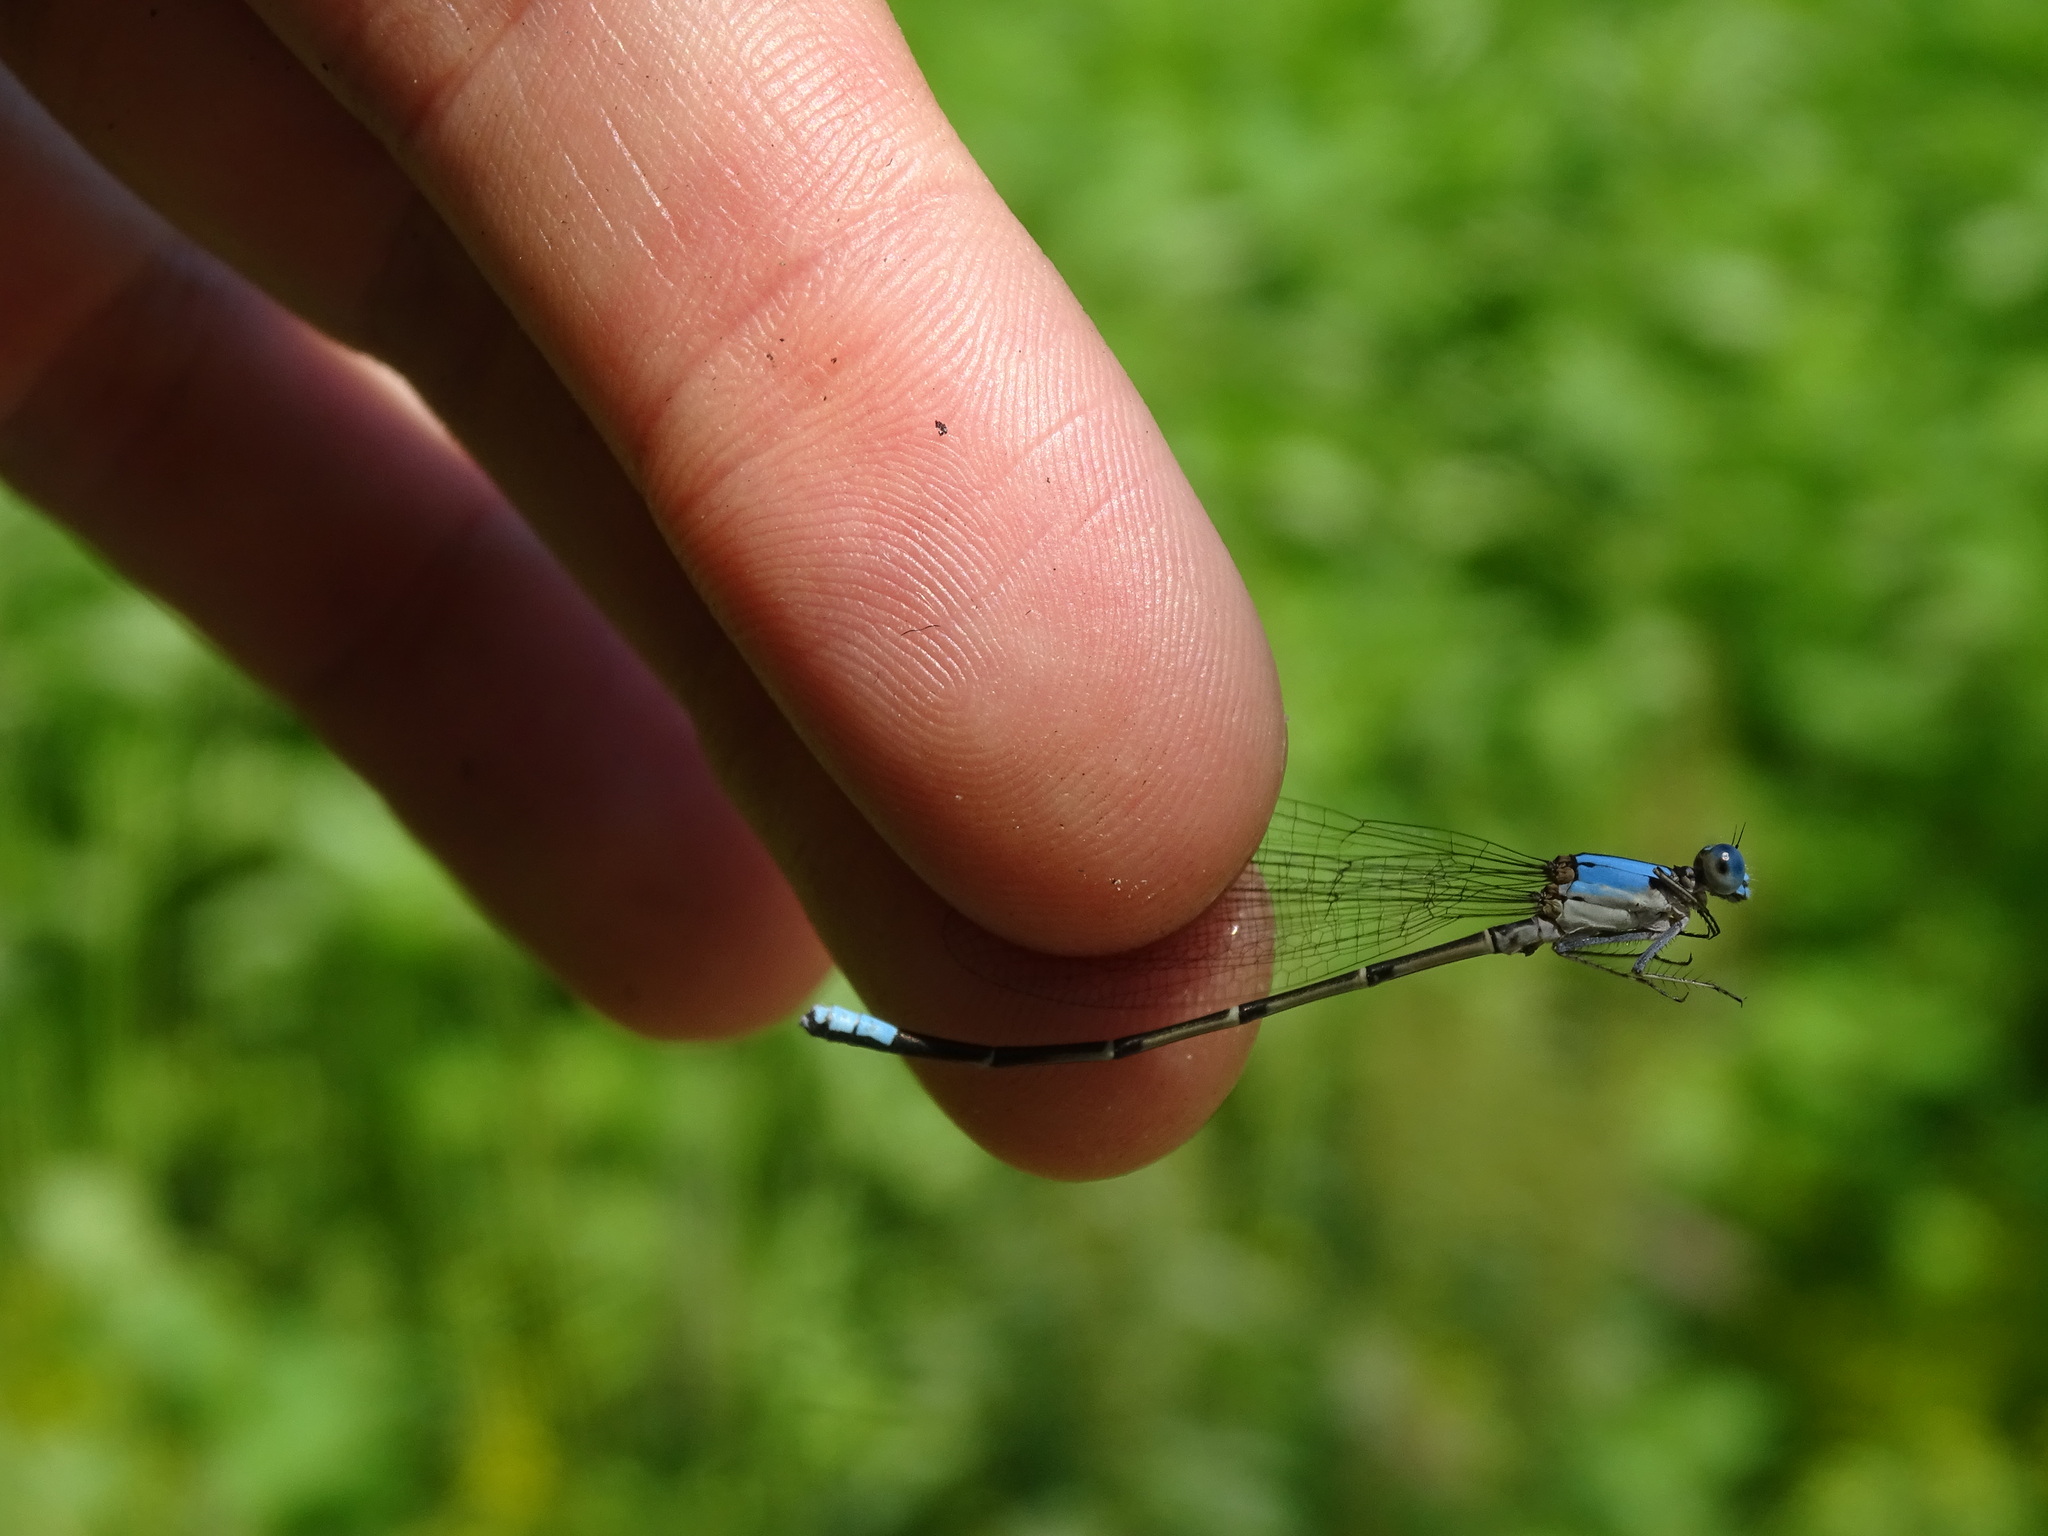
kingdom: Animalia
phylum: Arthropoda
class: Insecta
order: Odonata
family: Coenagrionidae
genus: Argia
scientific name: Argia apicalis
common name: Blue-fronted dancer
